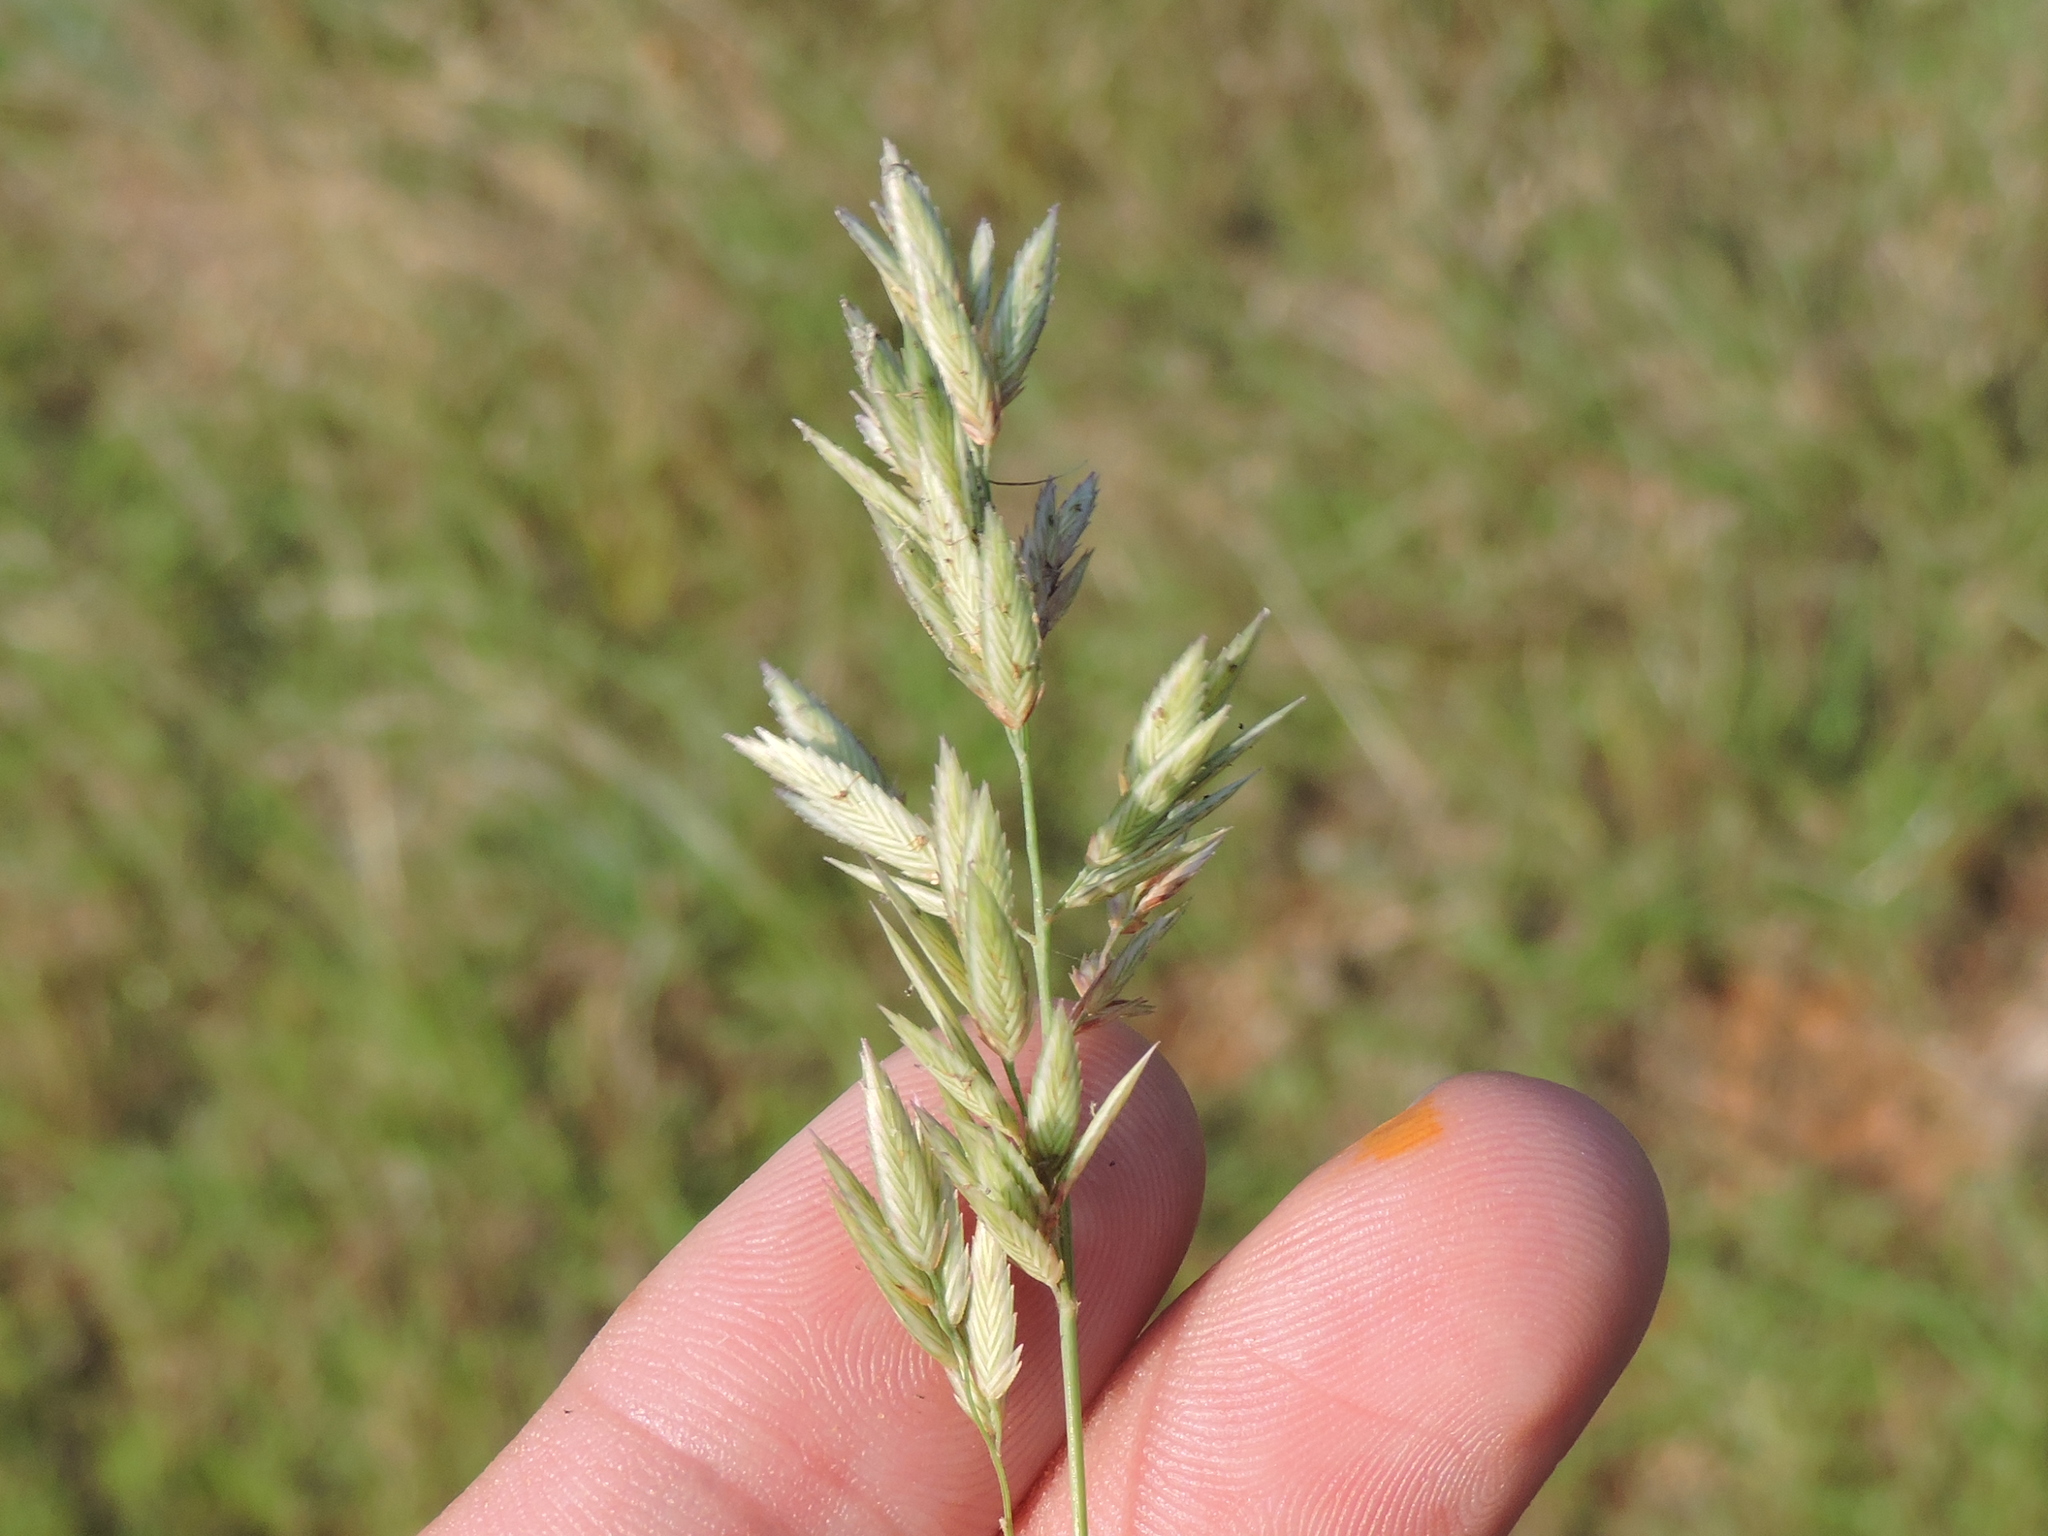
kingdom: Plantae
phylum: Tracheophyta
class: Liliopsida
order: Poales
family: Poaceae
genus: Eragrostis
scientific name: Eragrostis secundiflora
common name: Red love grass
